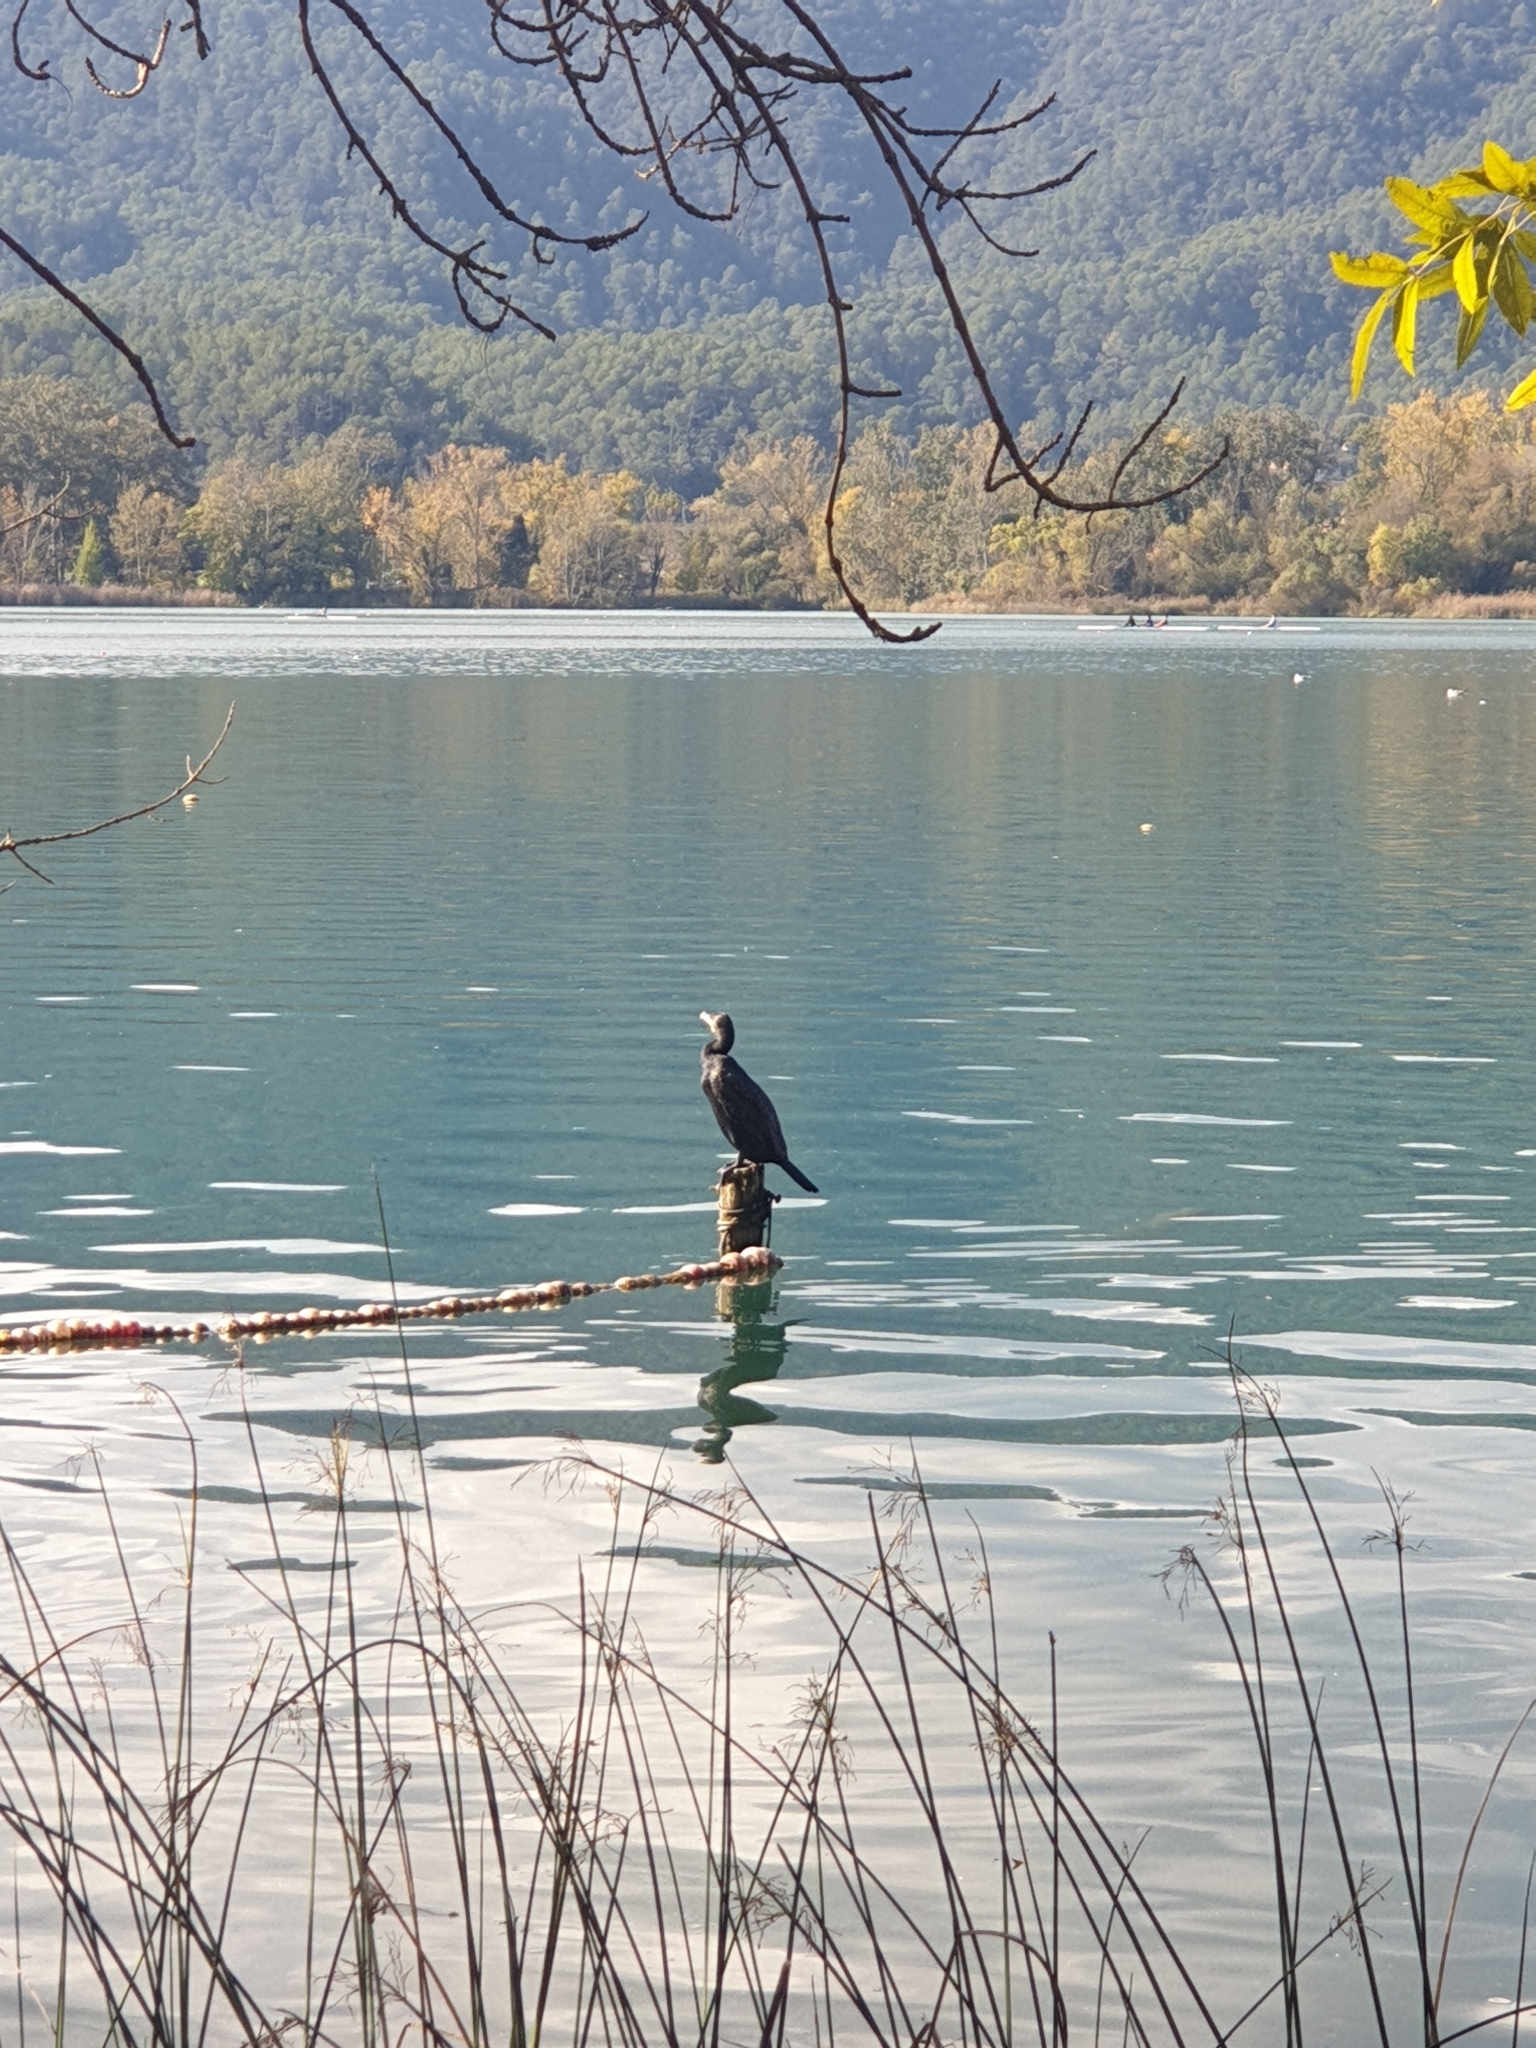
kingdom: Animalia
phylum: Chordata
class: Aves
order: Suliformes
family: Phalacrocoracidae
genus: Phalacrocorax
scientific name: Phalacrocorax carbo
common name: Great cormorant
